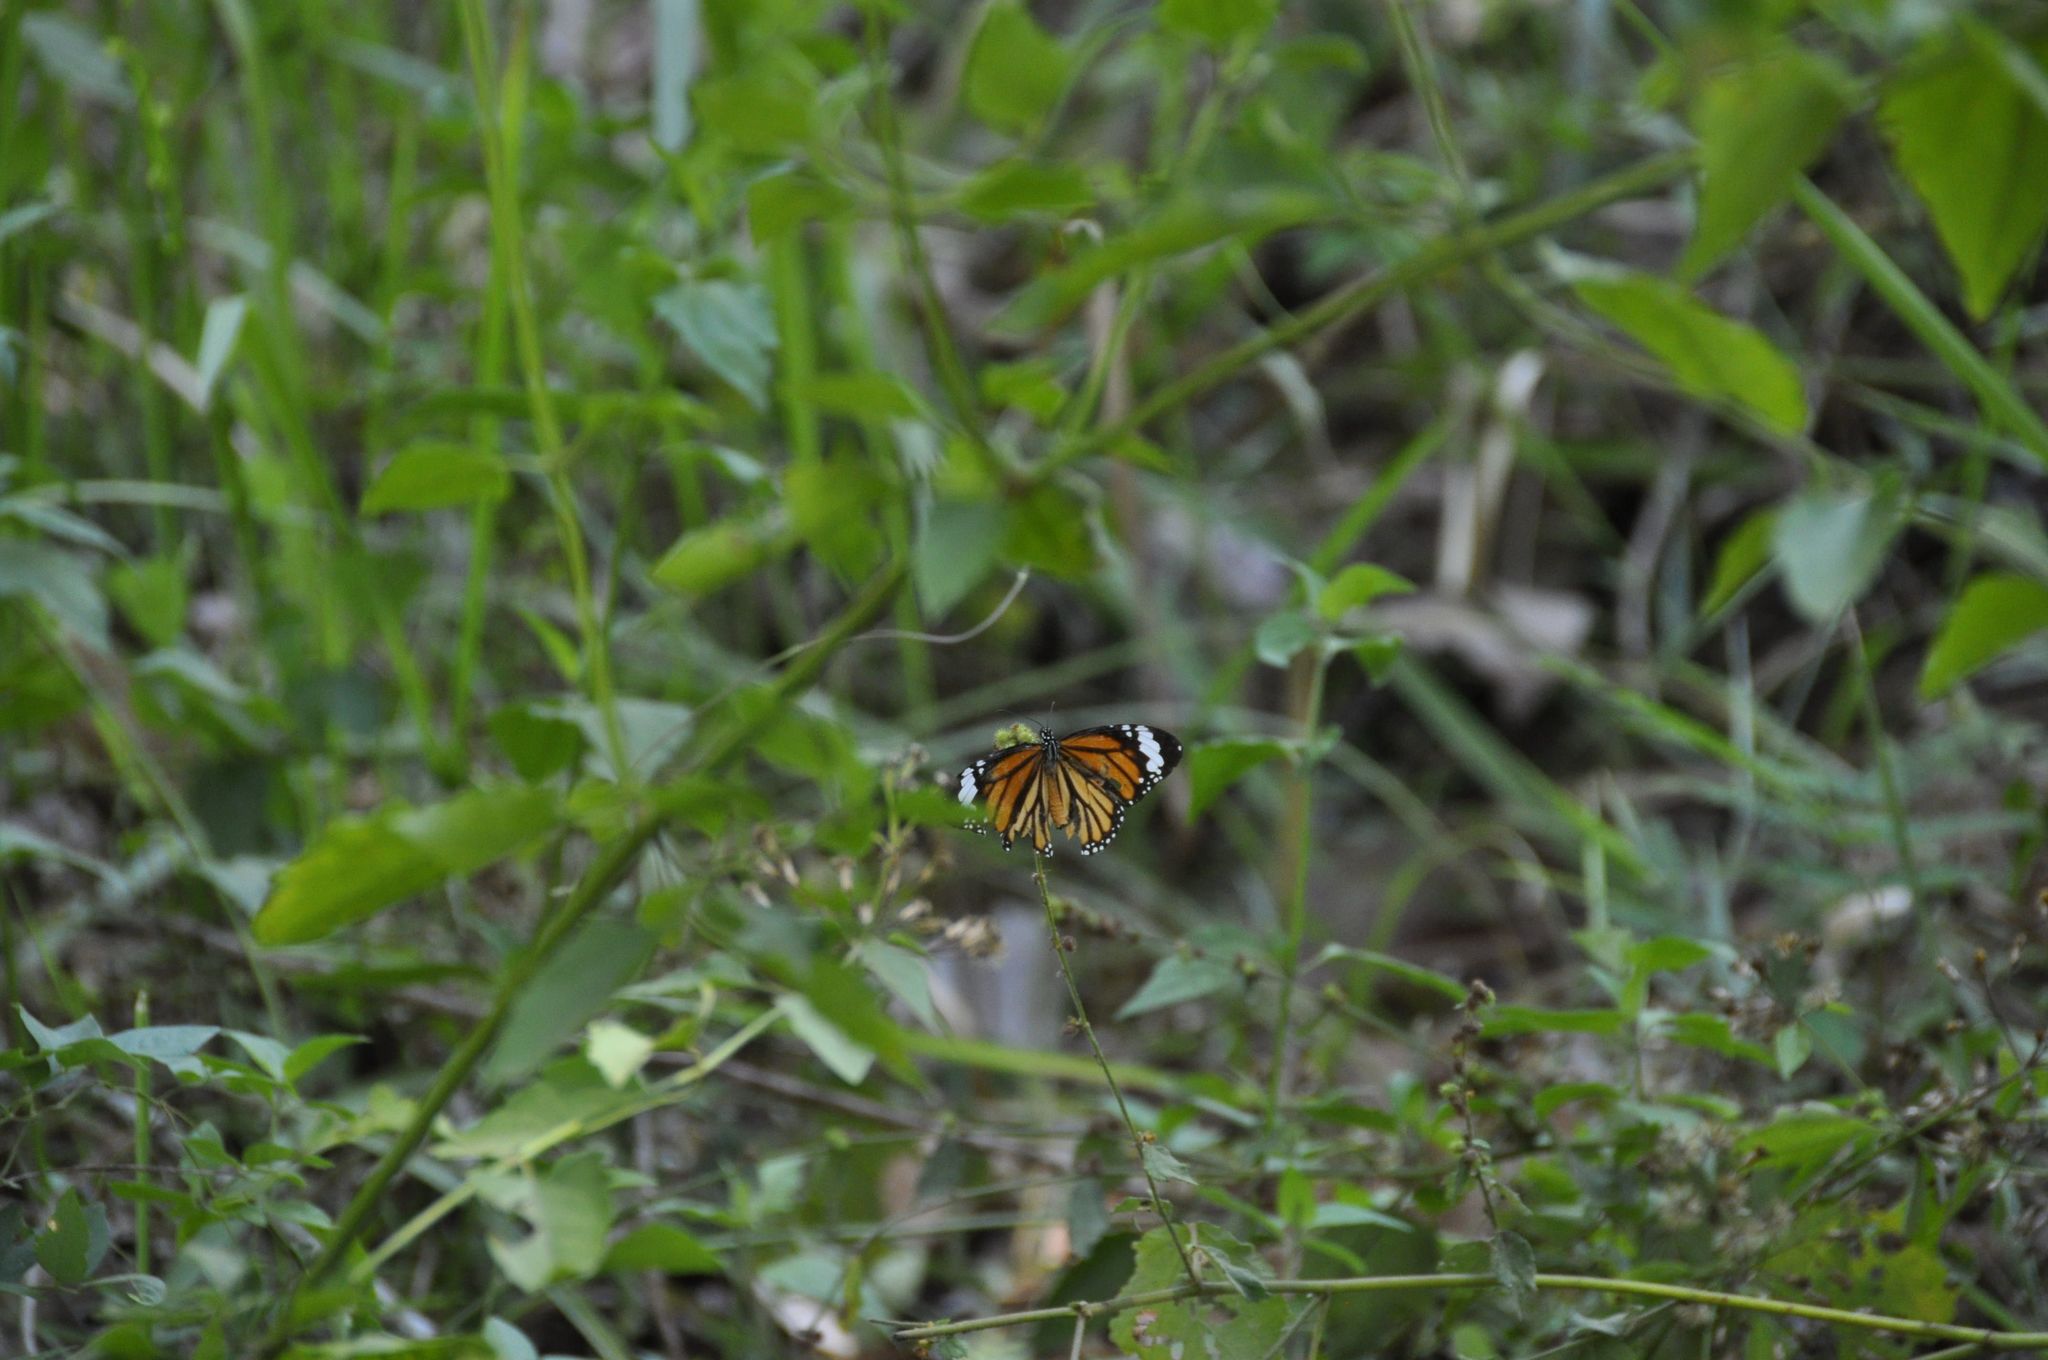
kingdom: Animalia
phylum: Arthropoda
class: Insecta
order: Lepidoptera
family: Nymphalidae
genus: Danaus
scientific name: Danaus genutia
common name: Common tiger butterfly
